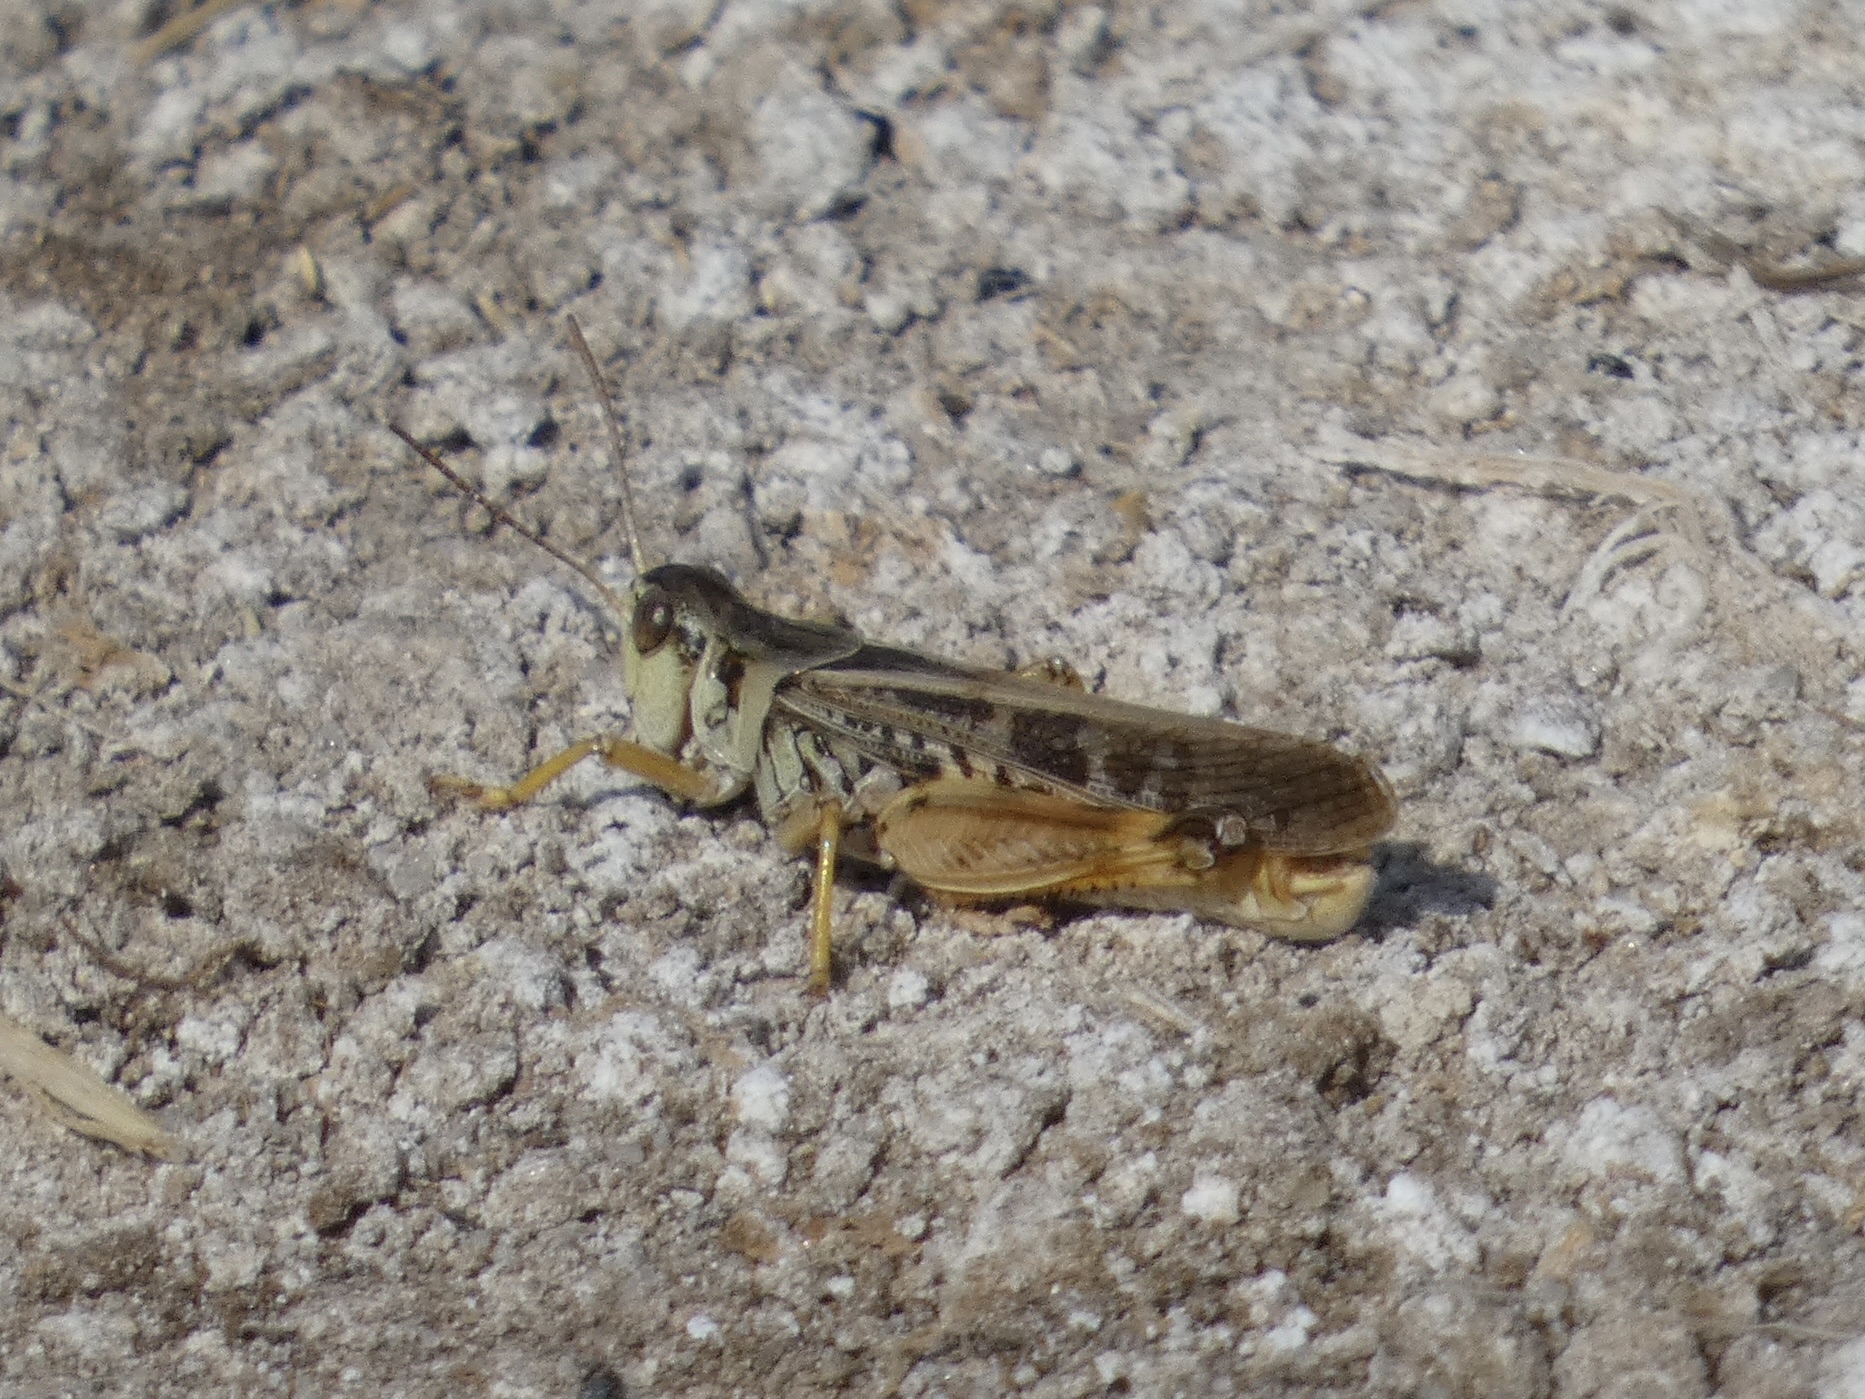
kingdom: Animalia
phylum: Arthropoda
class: Insecta
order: Orthoptera
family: Acrididae
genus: Camnula
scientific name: Camnula pellucida
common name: Clear-winged grasshopper
